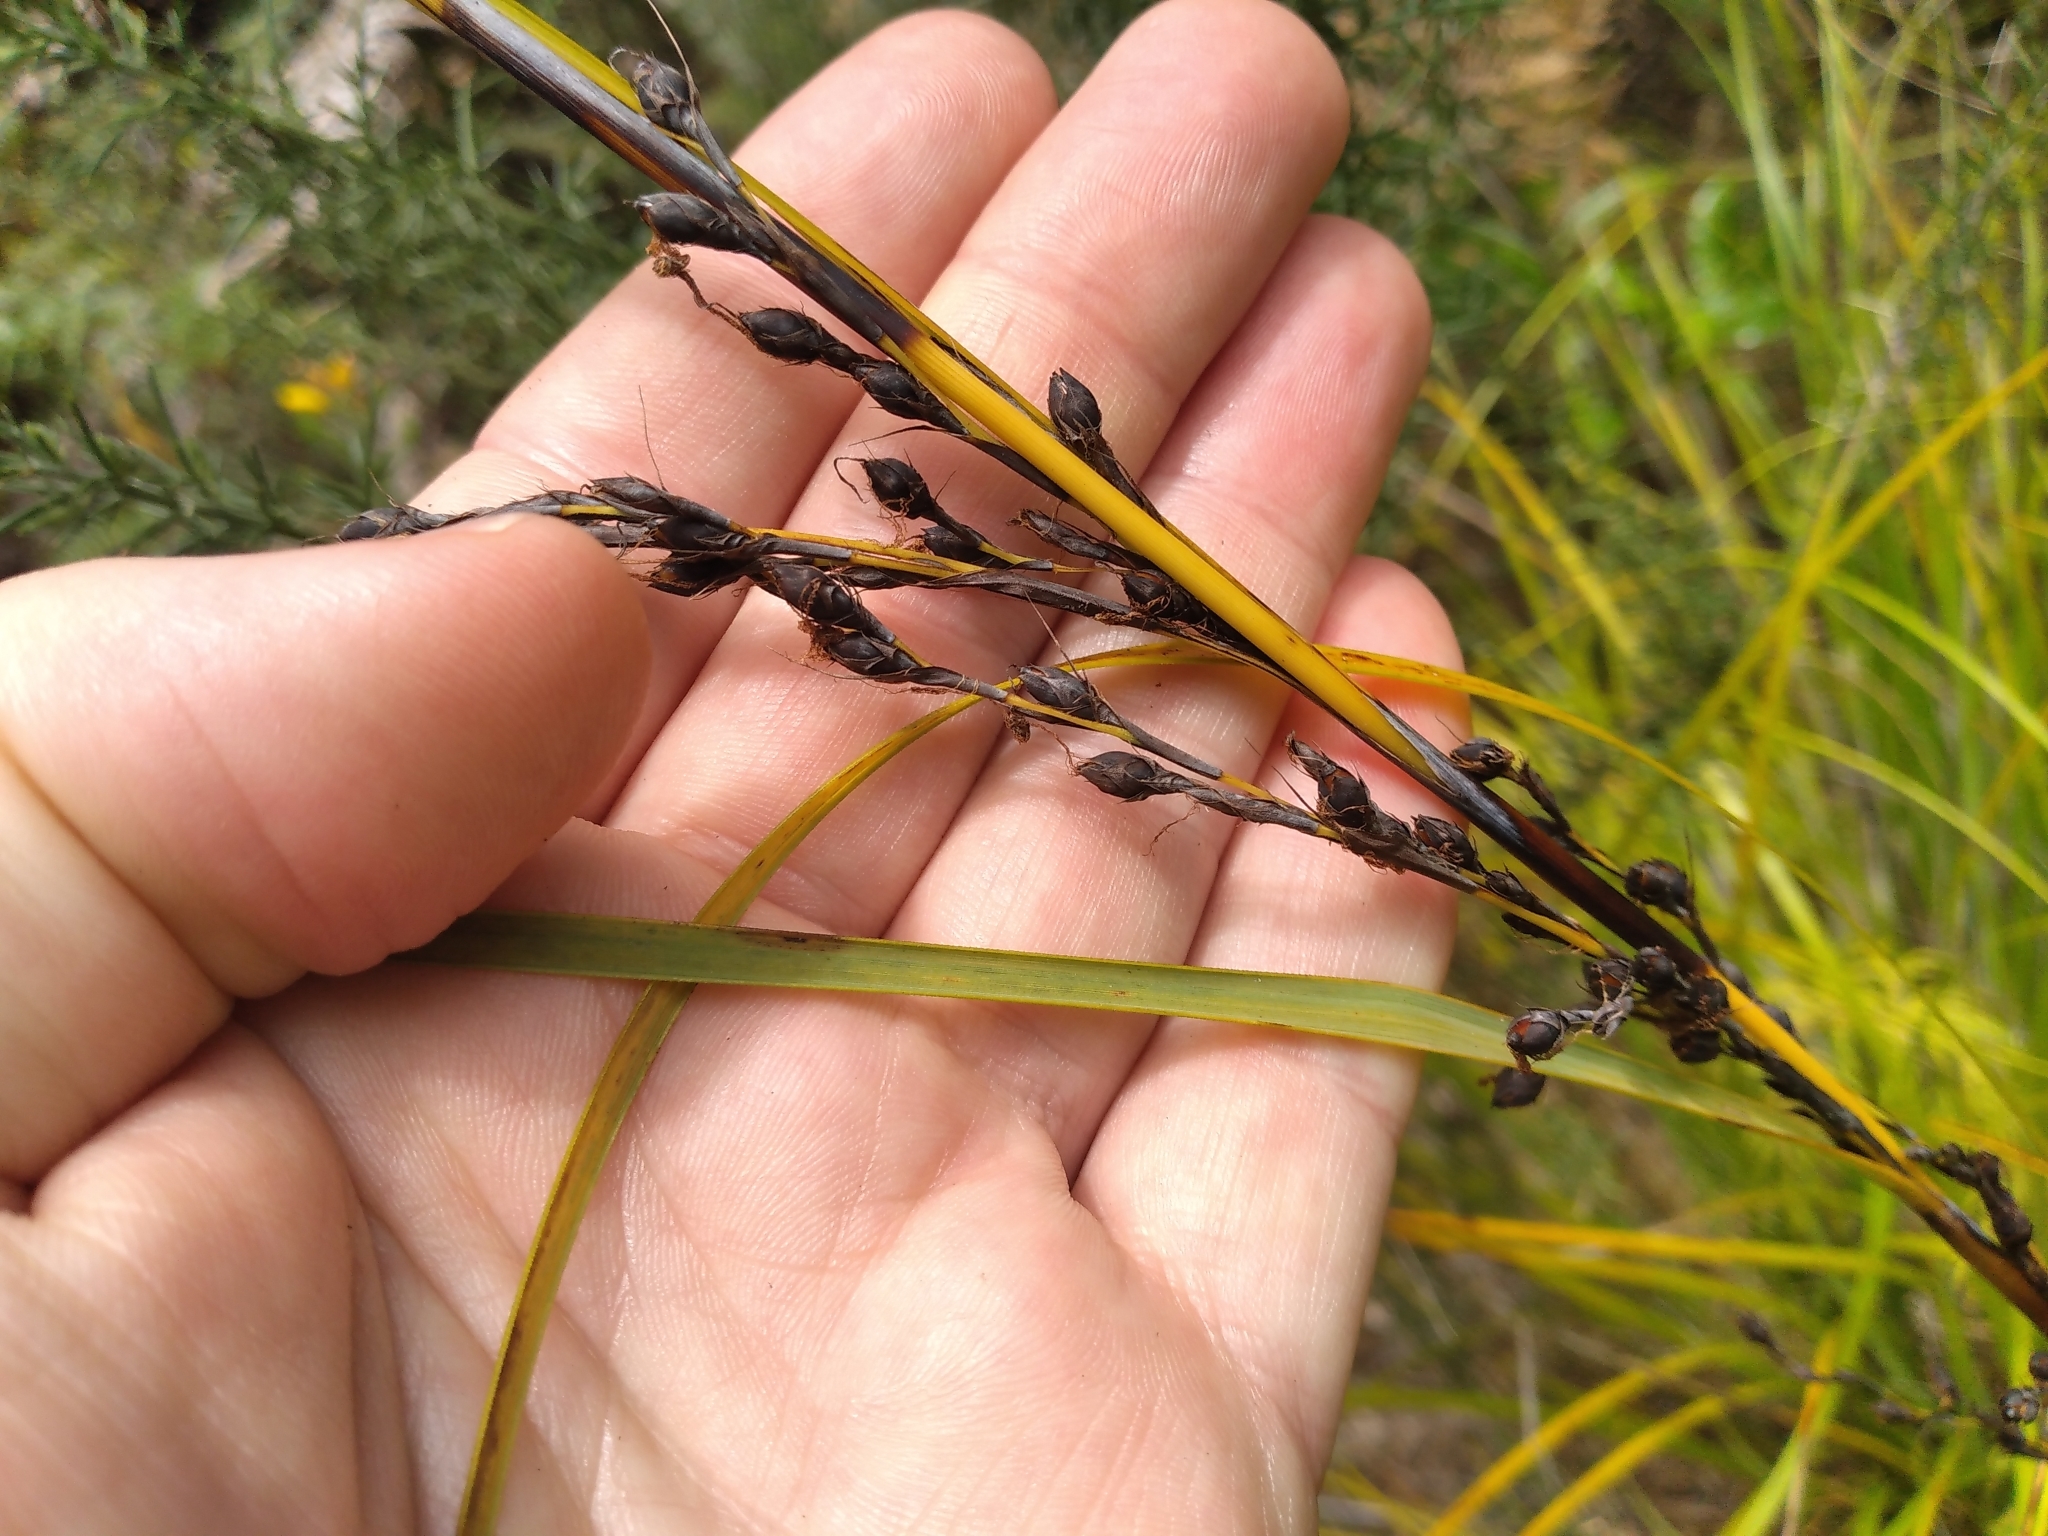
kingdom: Plantae
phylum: Tracheophyta
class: Liliopsida
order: Poales
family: Cyperaceae
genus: Gahnia
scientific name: Gahnia pauciflora
